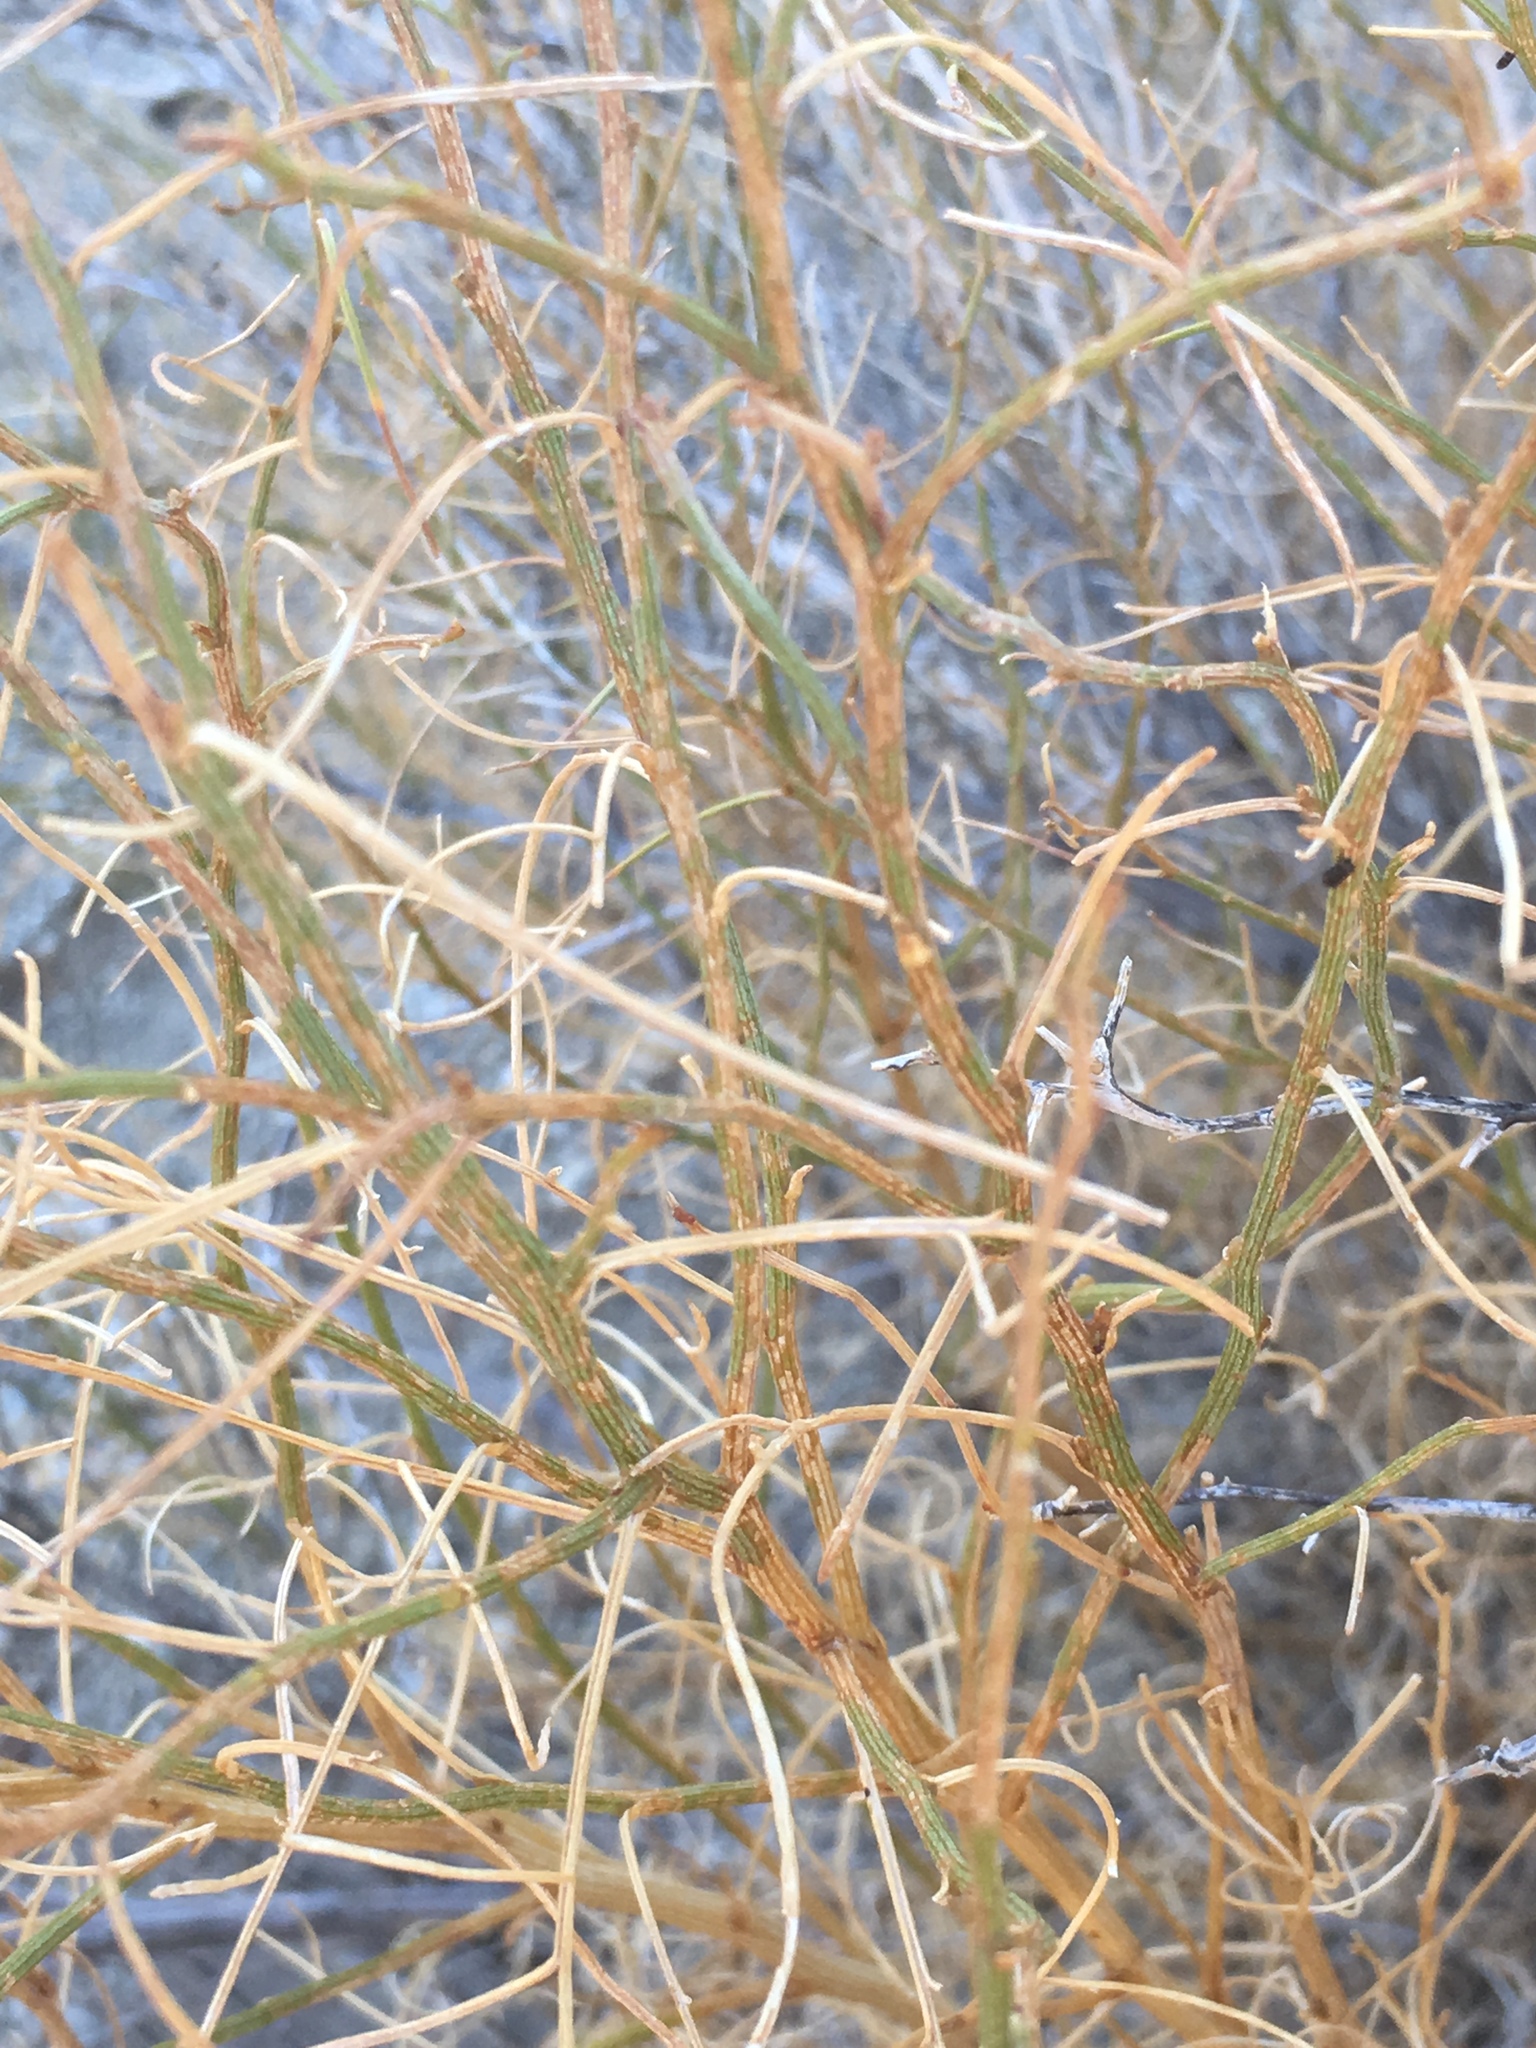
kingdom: Plantae
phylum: Tracheophyta
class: Magnoliopsida
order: Asterales
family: Asteraceae
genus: Ambrosia
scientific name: Ambrosia salsola
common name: Burrobrush
